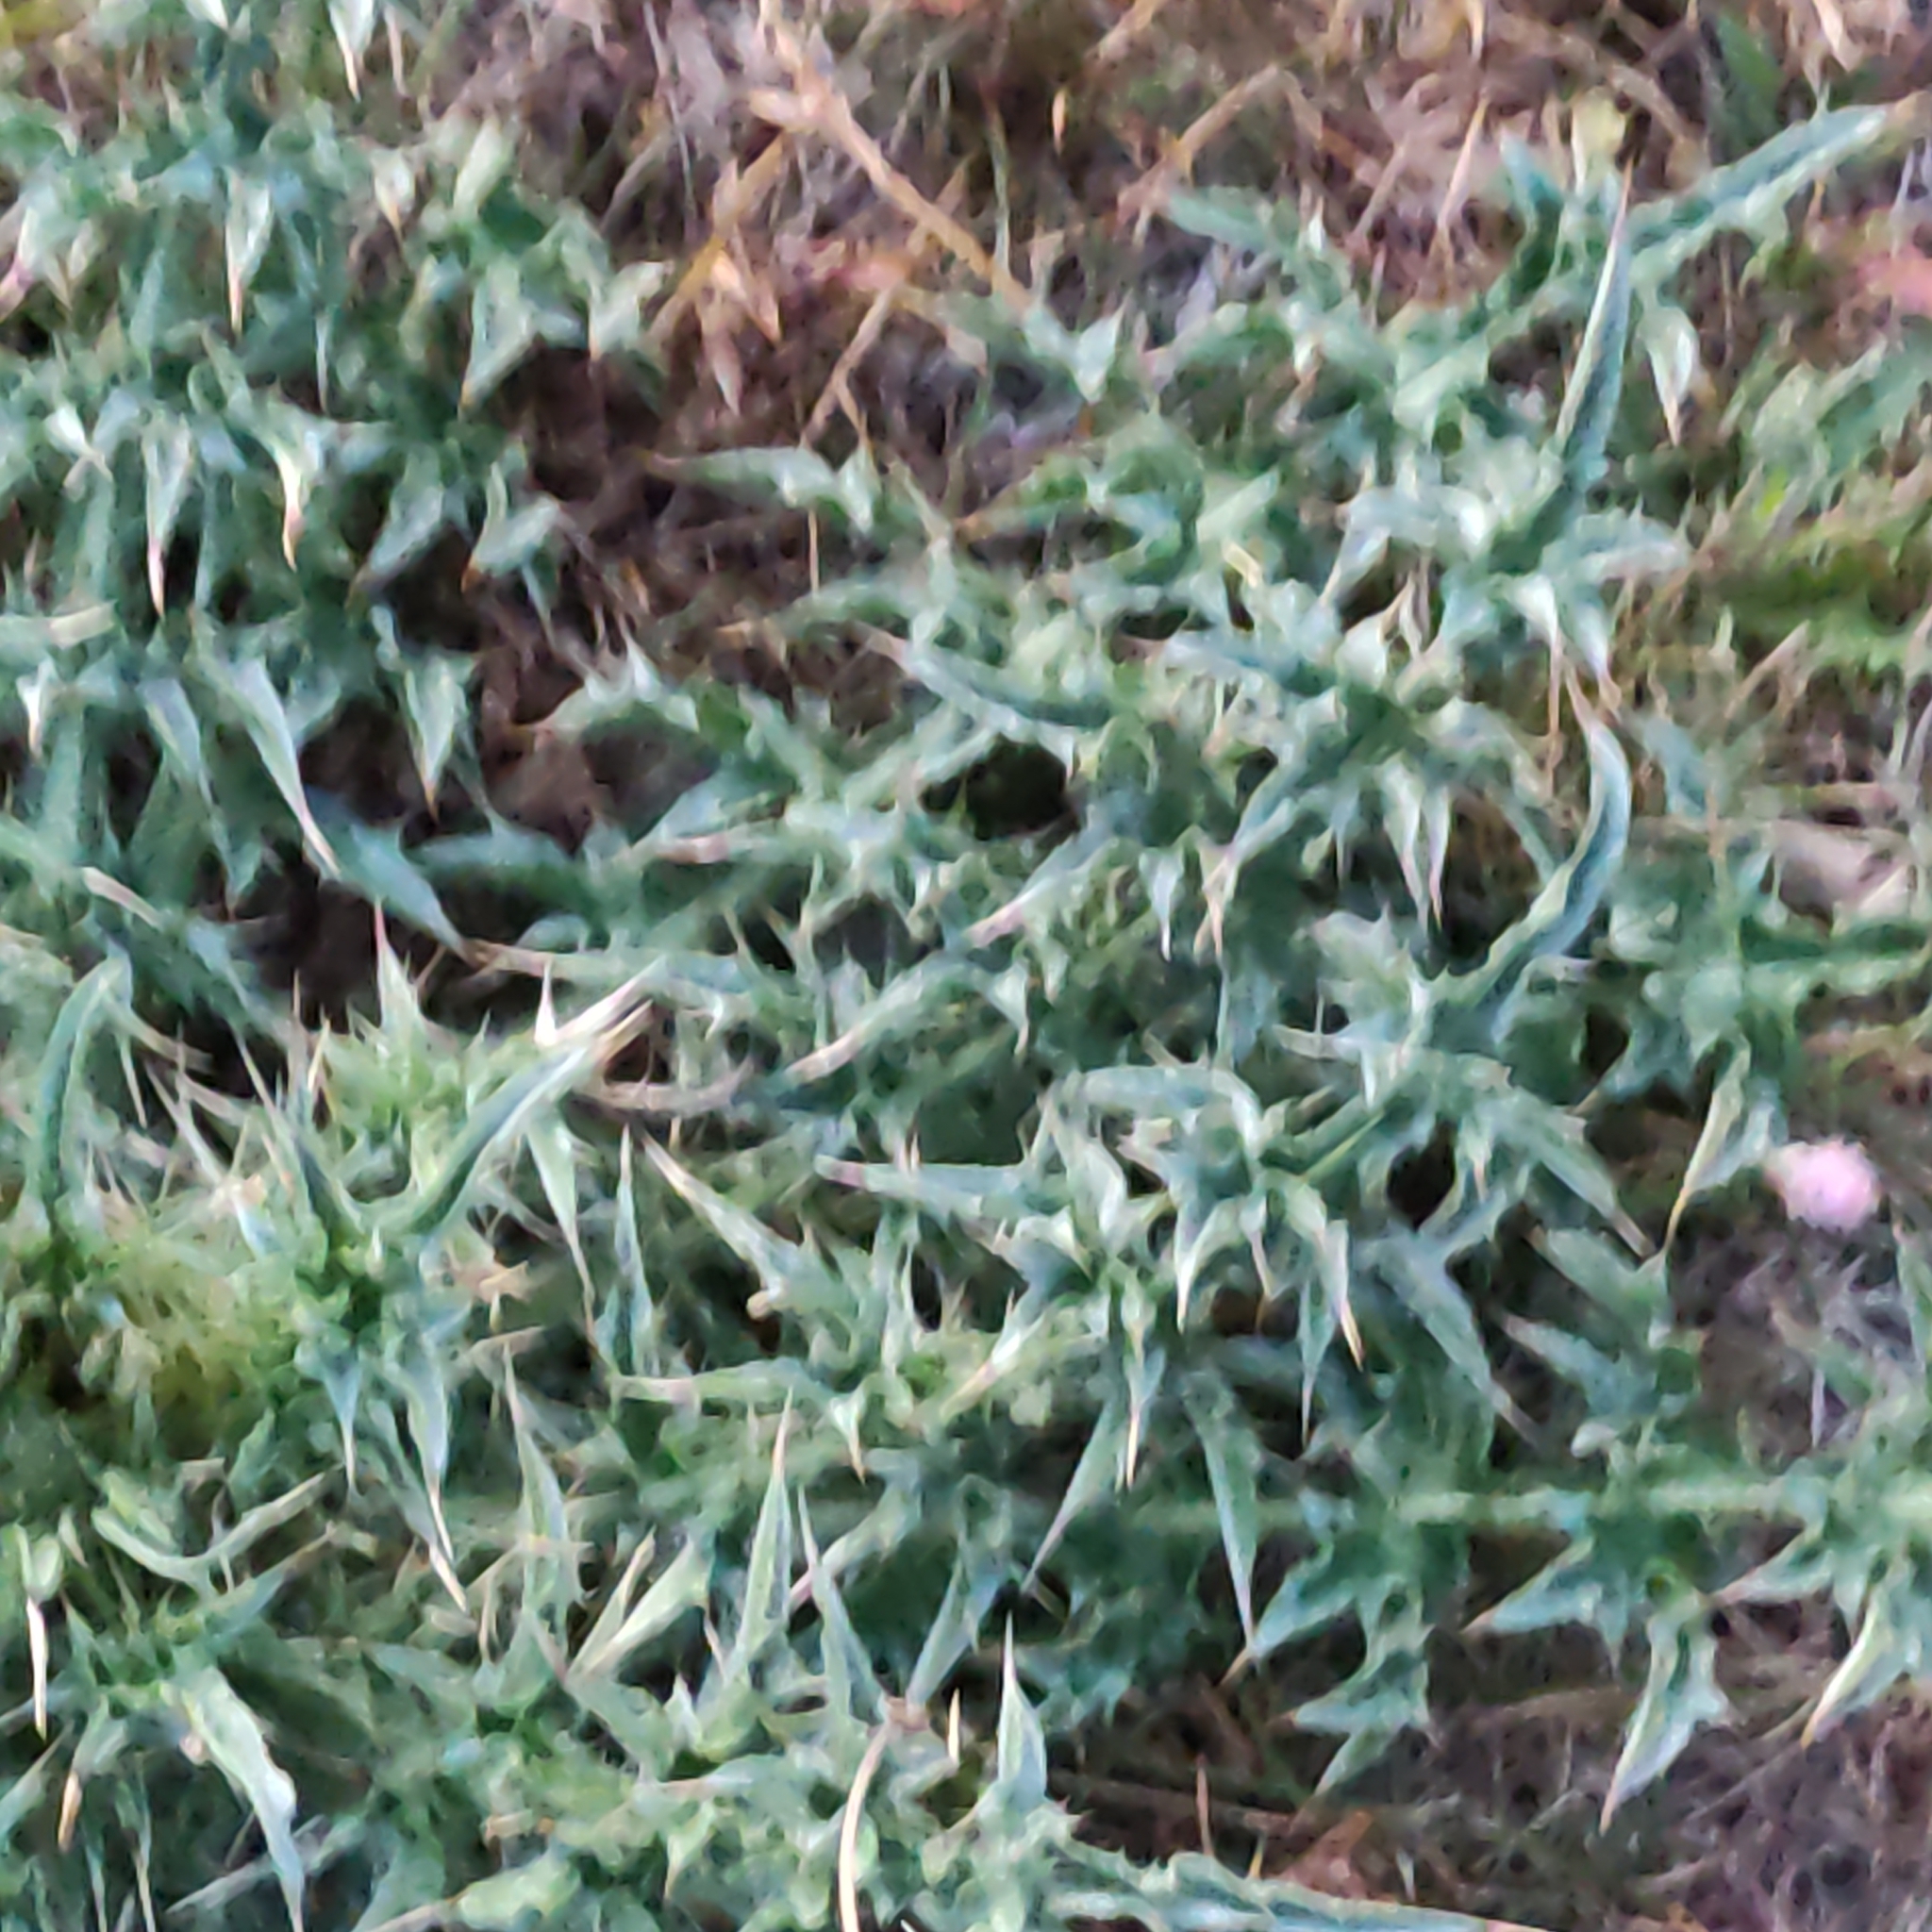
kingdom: Plantae
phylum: Tracheophyta
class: Magnoliopsida
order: Asterales
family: Asteraceae
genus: Cirsium
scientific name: Cirsium vulgare
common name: Bull thistle
